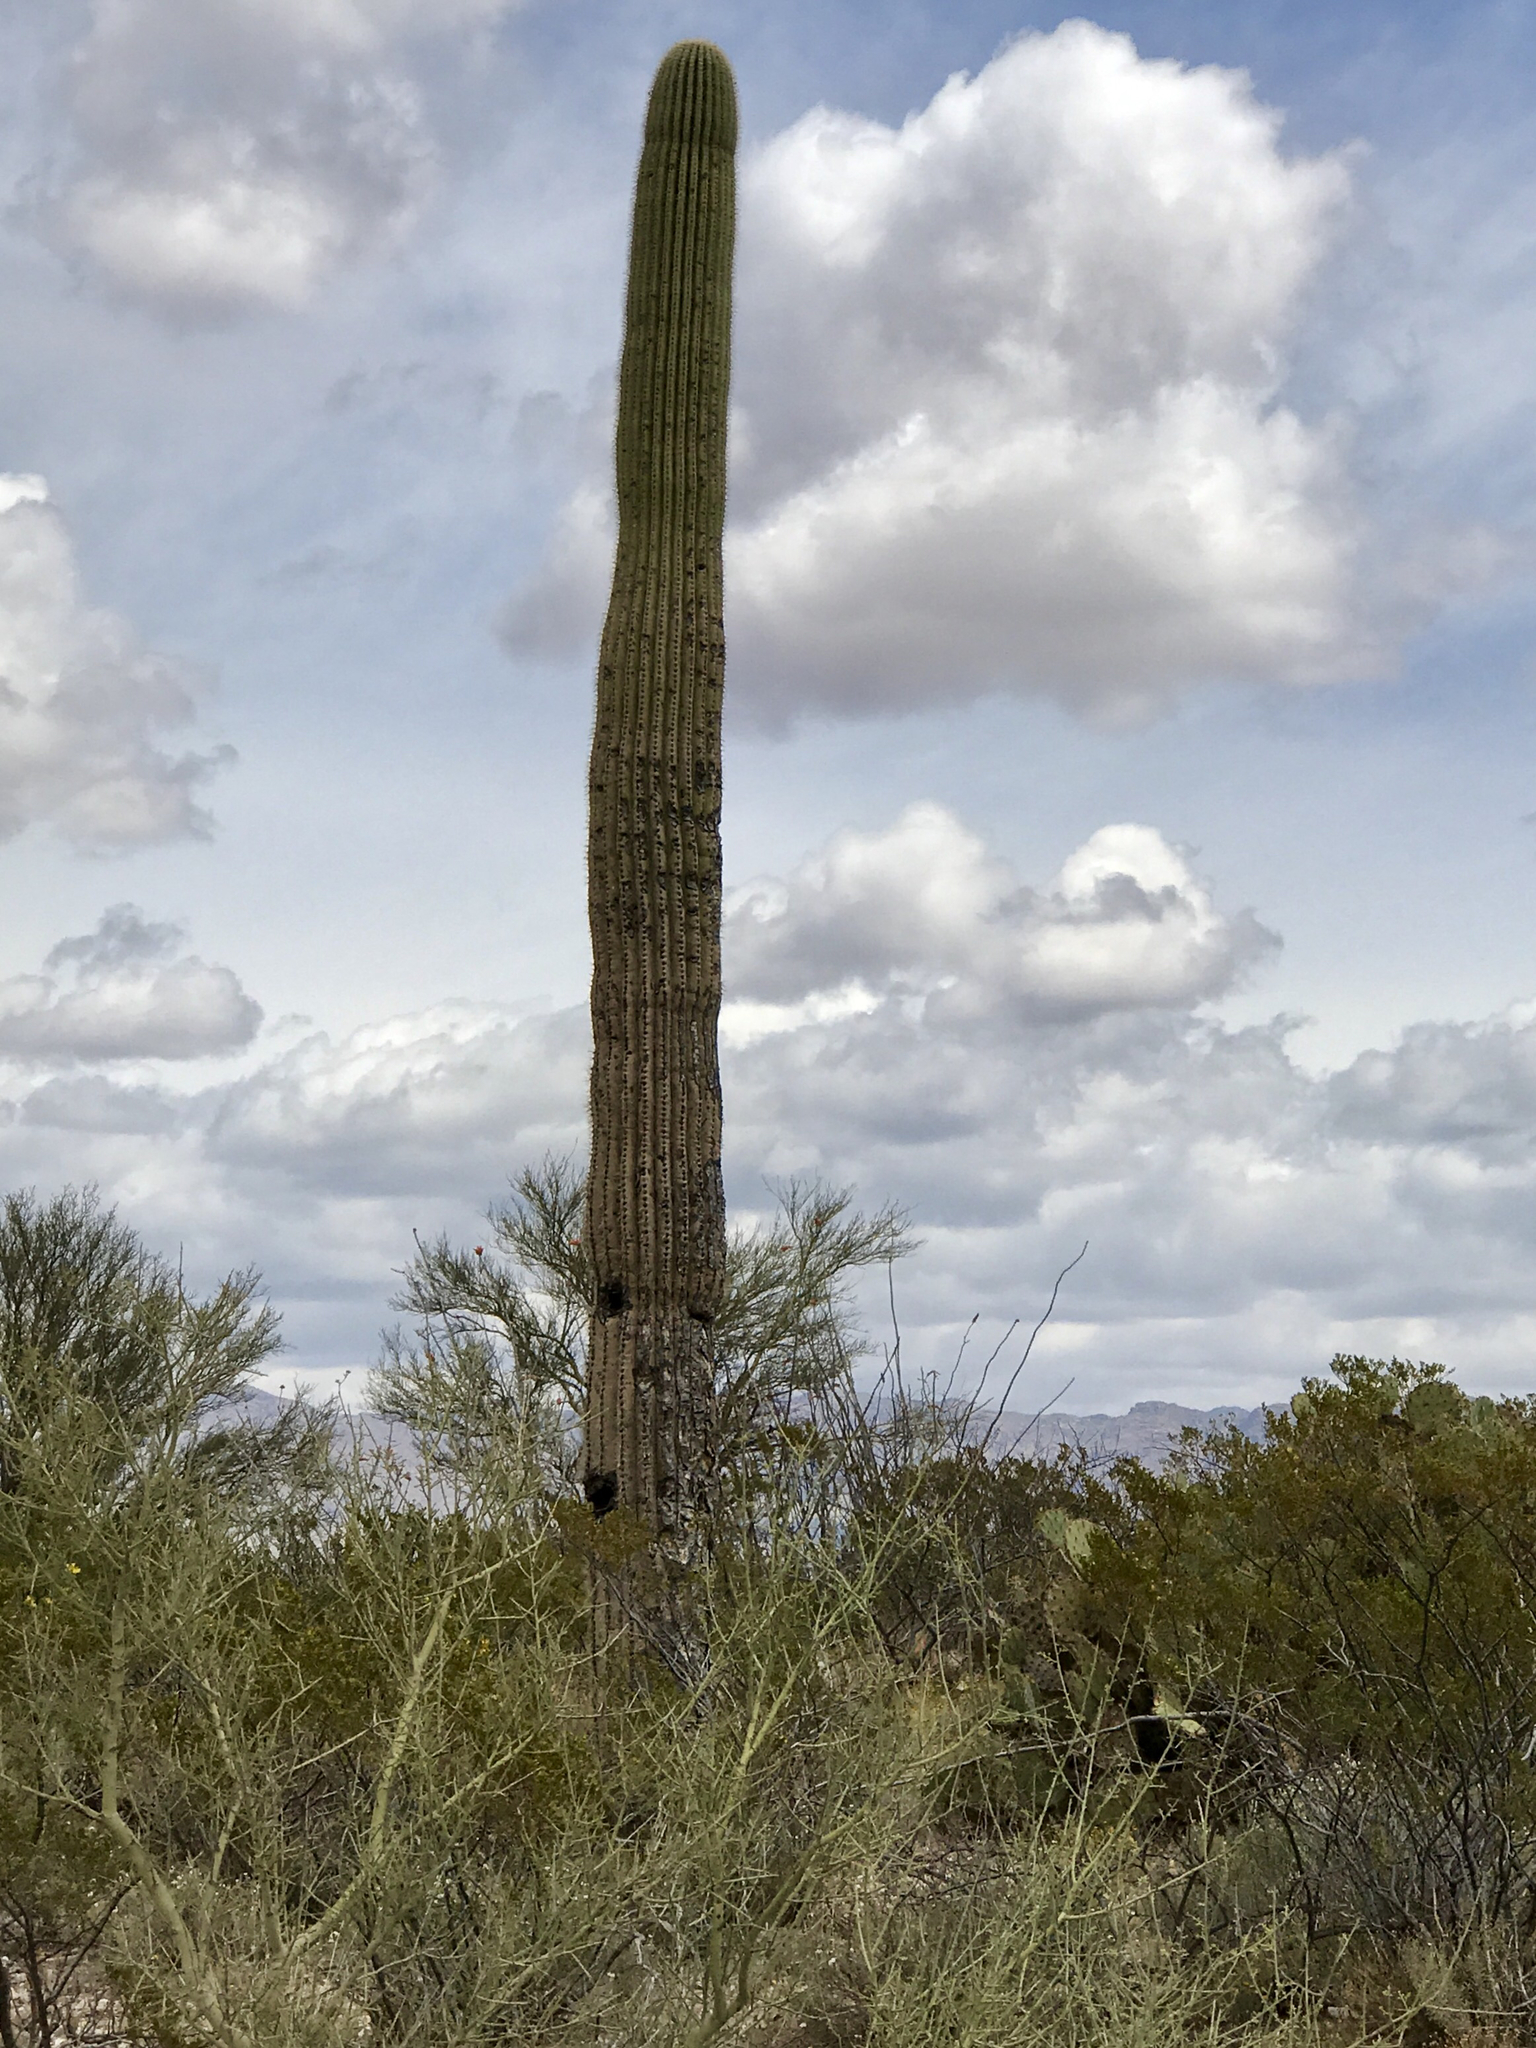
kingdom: Plantae
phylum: Tracheophyta
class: Magnoliopsida
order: Caryophyllales
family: Cactaceae
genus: Carnegiea
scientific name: Carnegiea gigantea
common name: Saguaro
